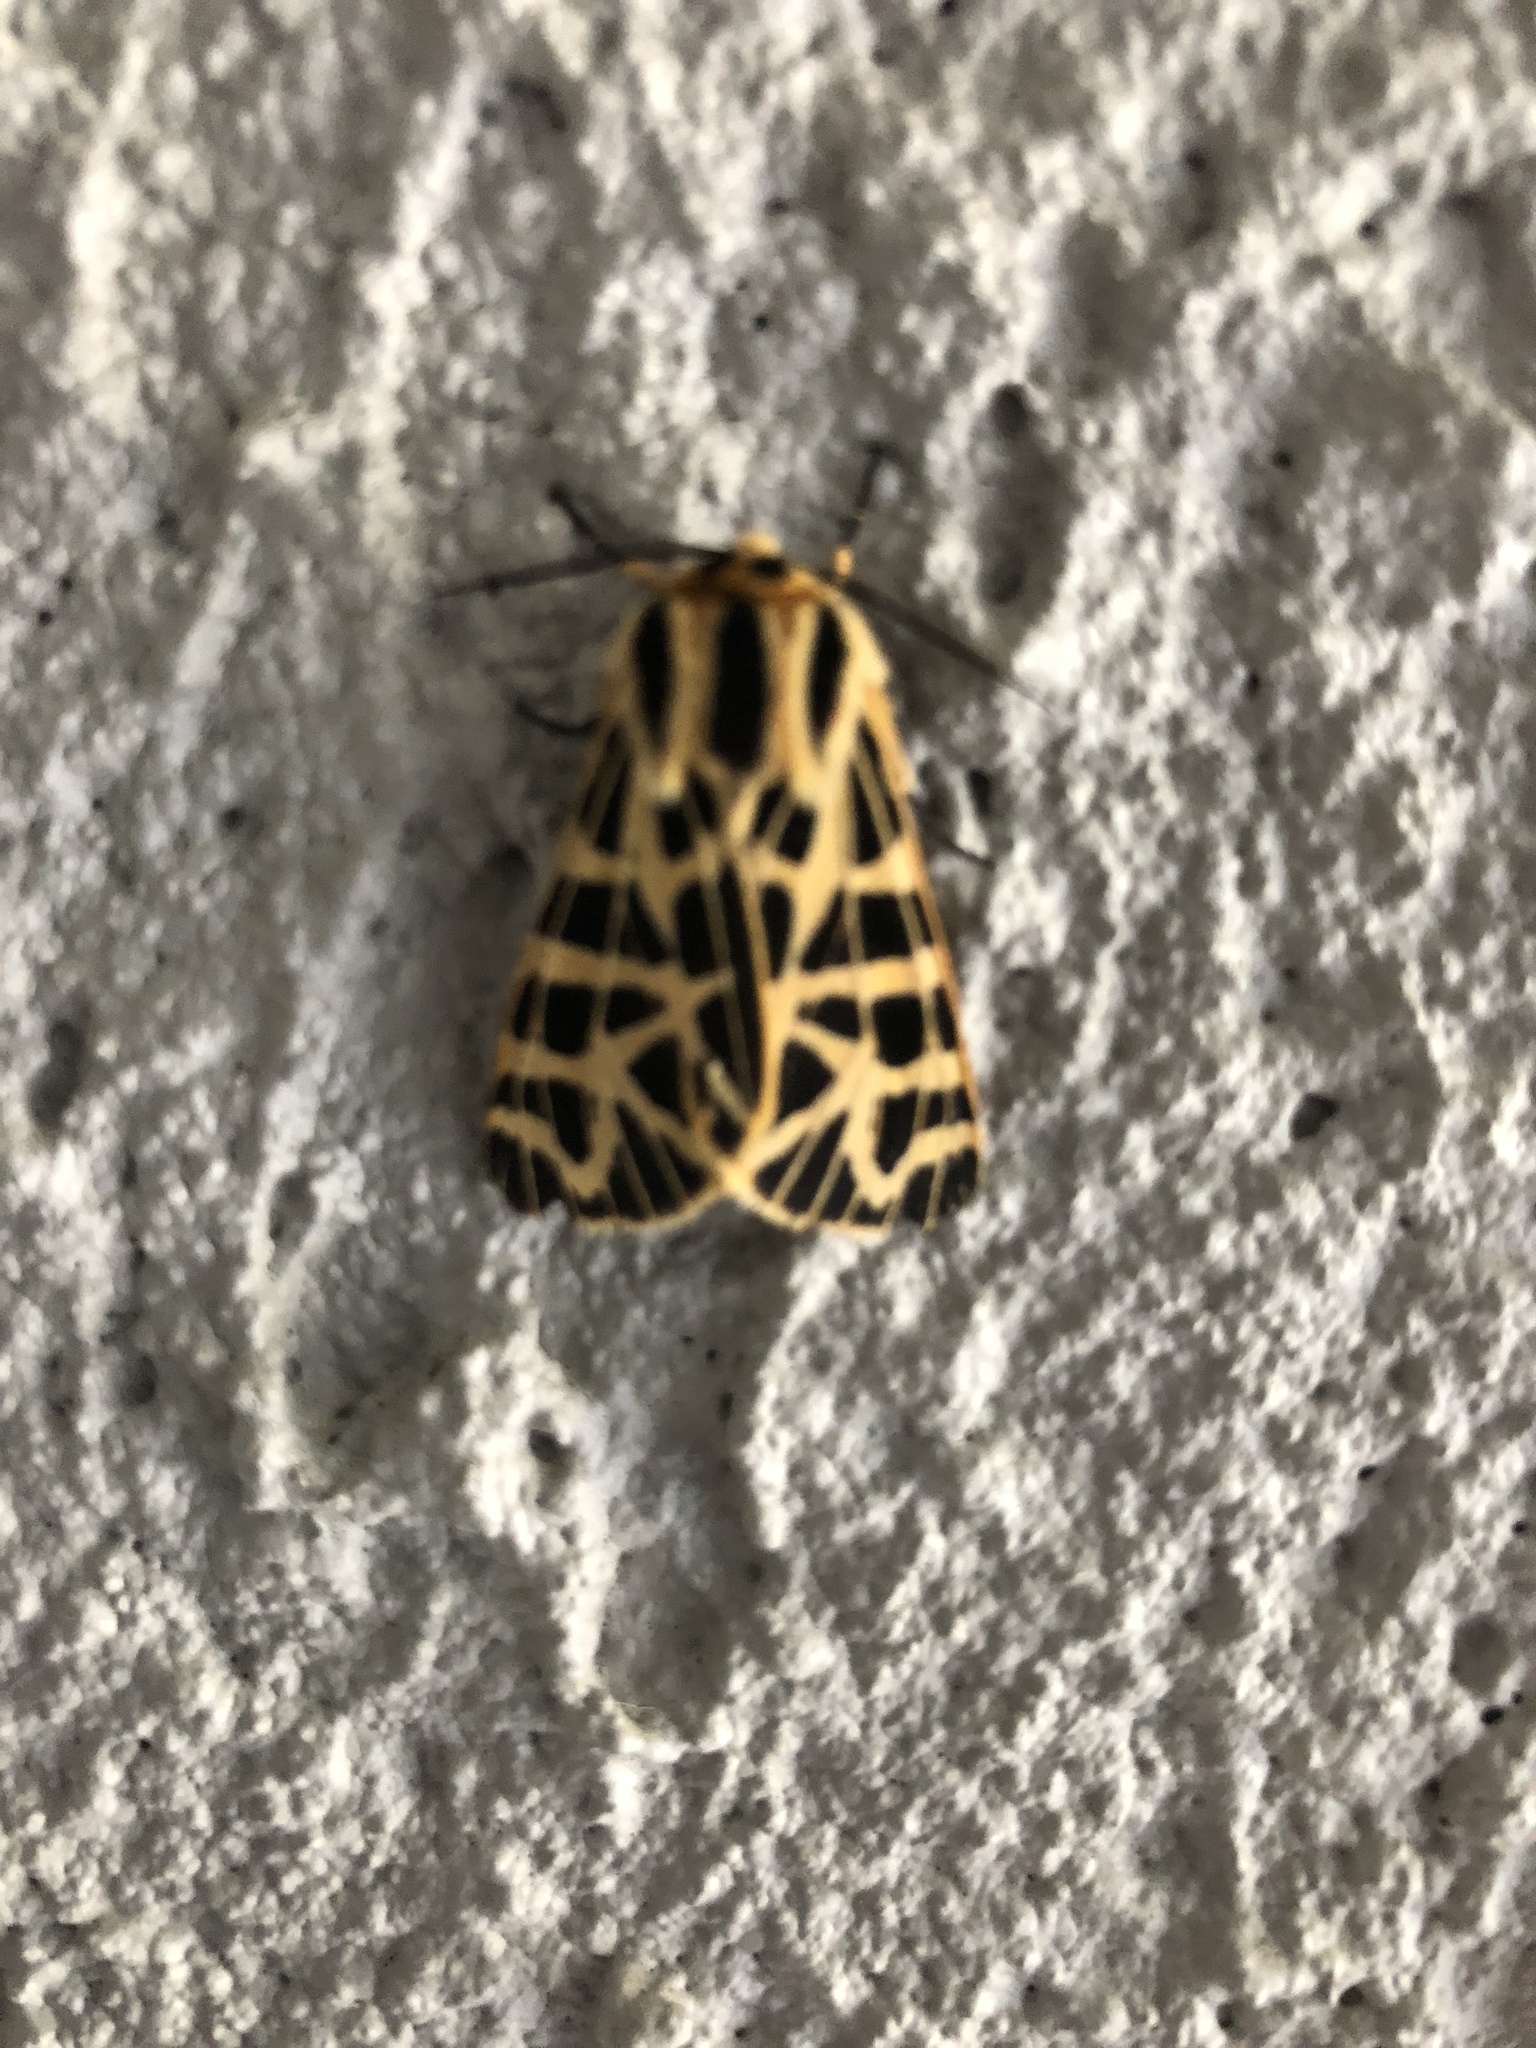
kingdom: Animalia
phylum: Arthropoda
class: Insecta
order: Lepidoptera
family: Erebidae
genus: Apantesis
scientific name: Apantesis
